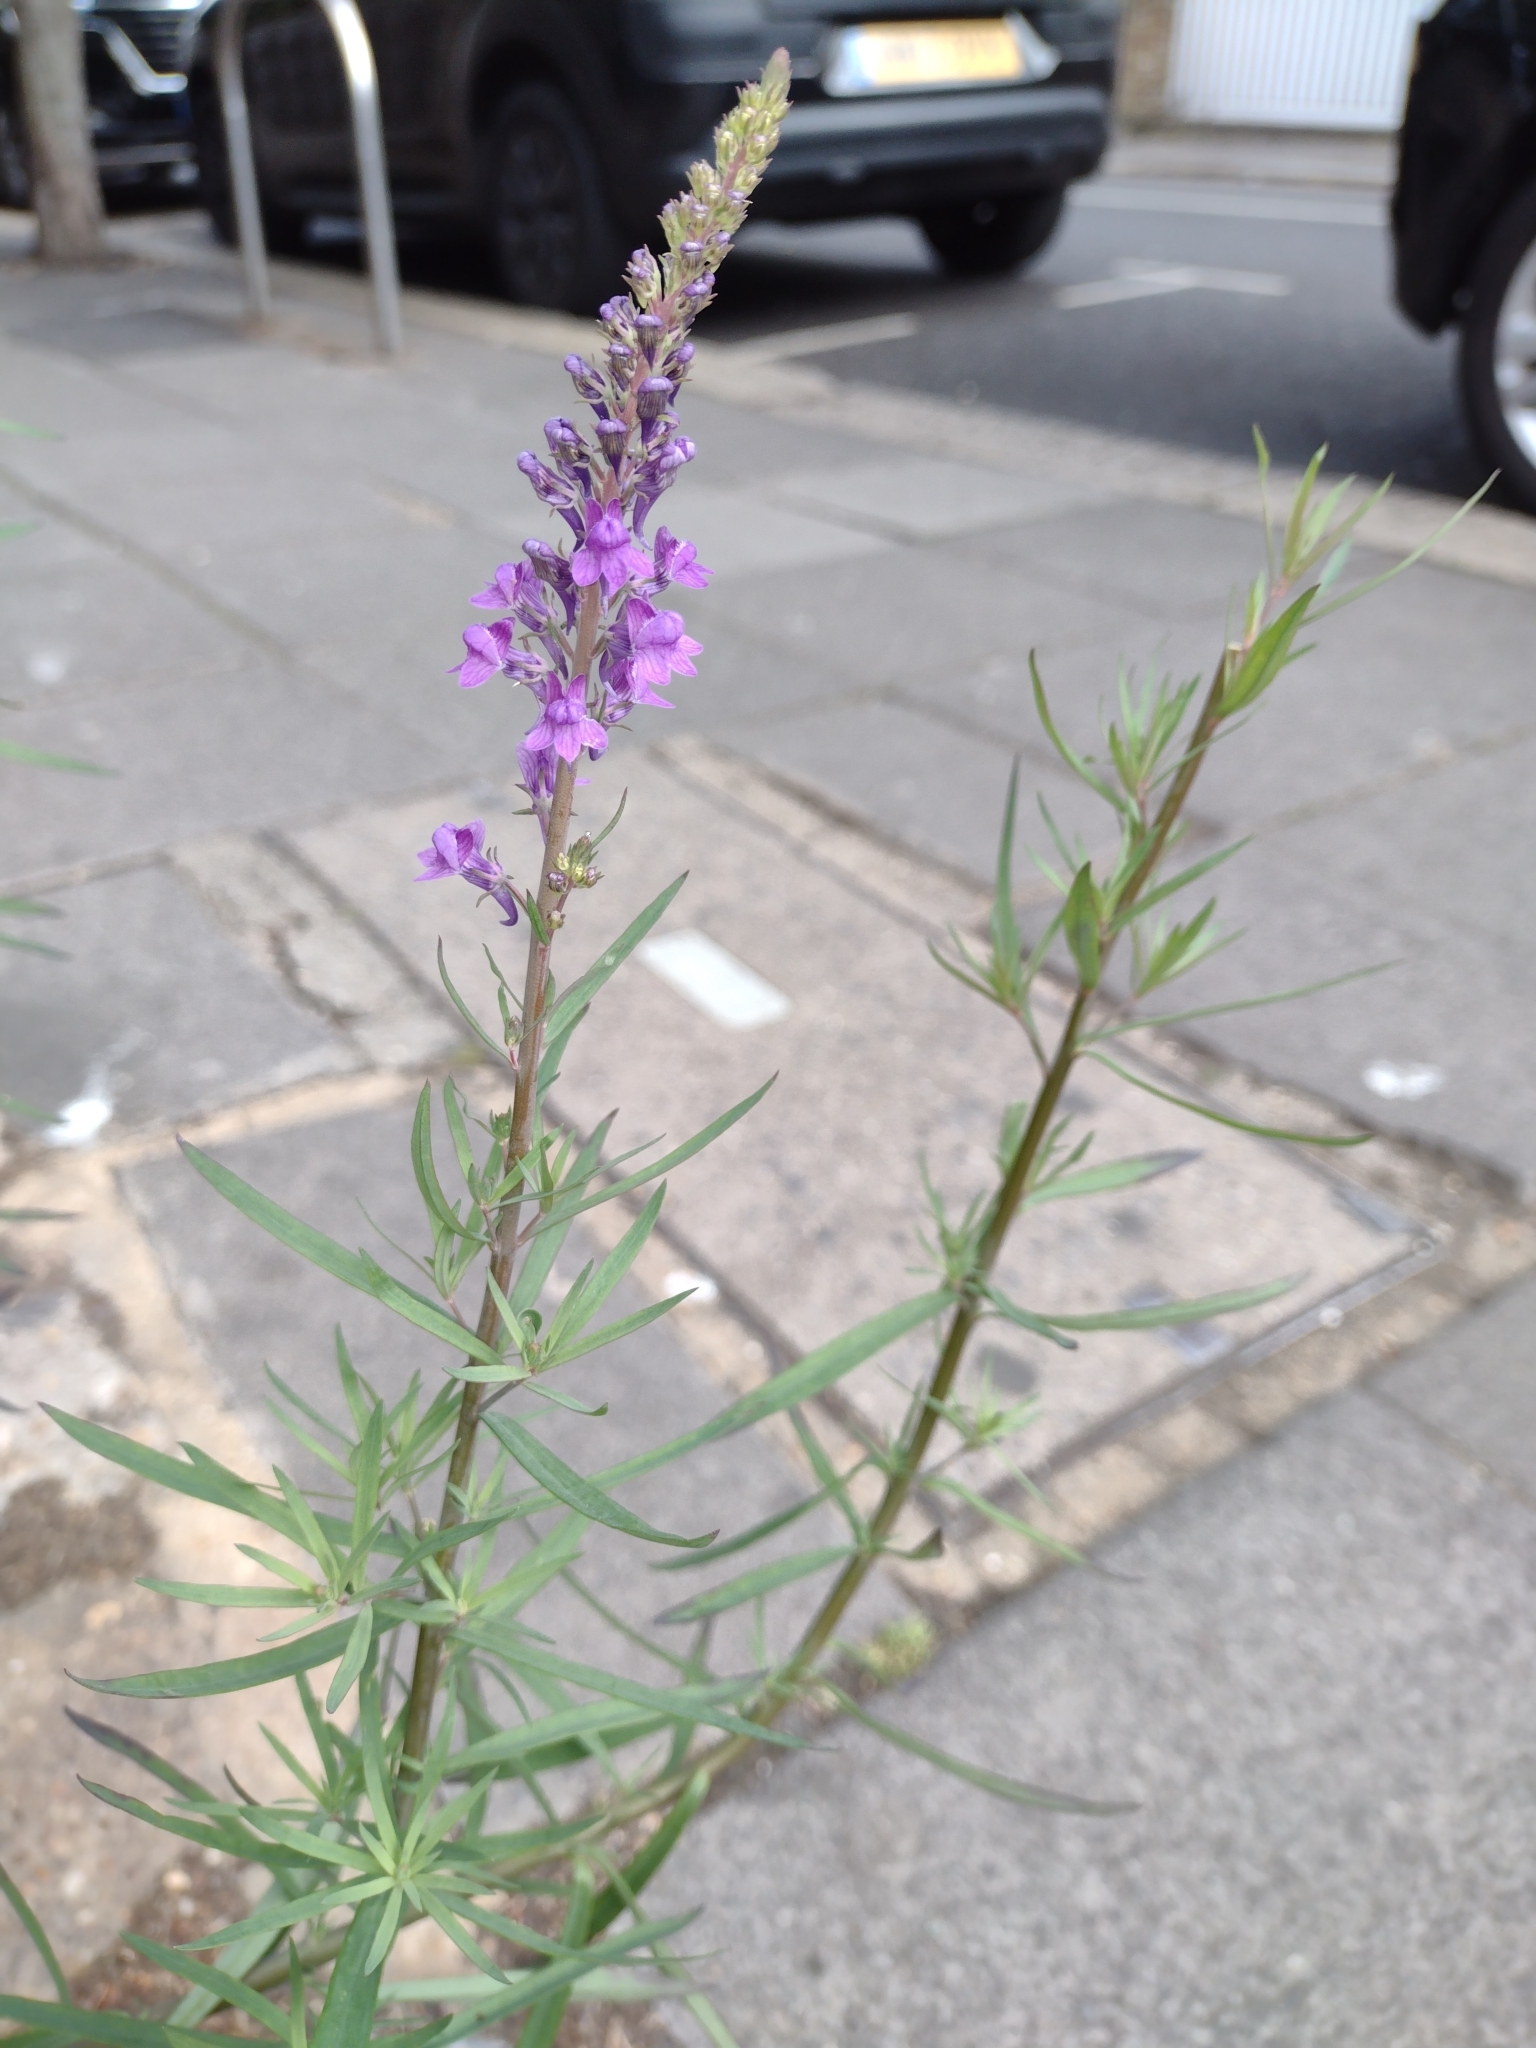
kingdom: Plantae
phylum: Tracheophyta
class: Magnoliopsida
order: Lamiales
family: Plantaginaceae
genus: Linaria
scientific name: Linaria purpurea
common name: Purple toadflax
